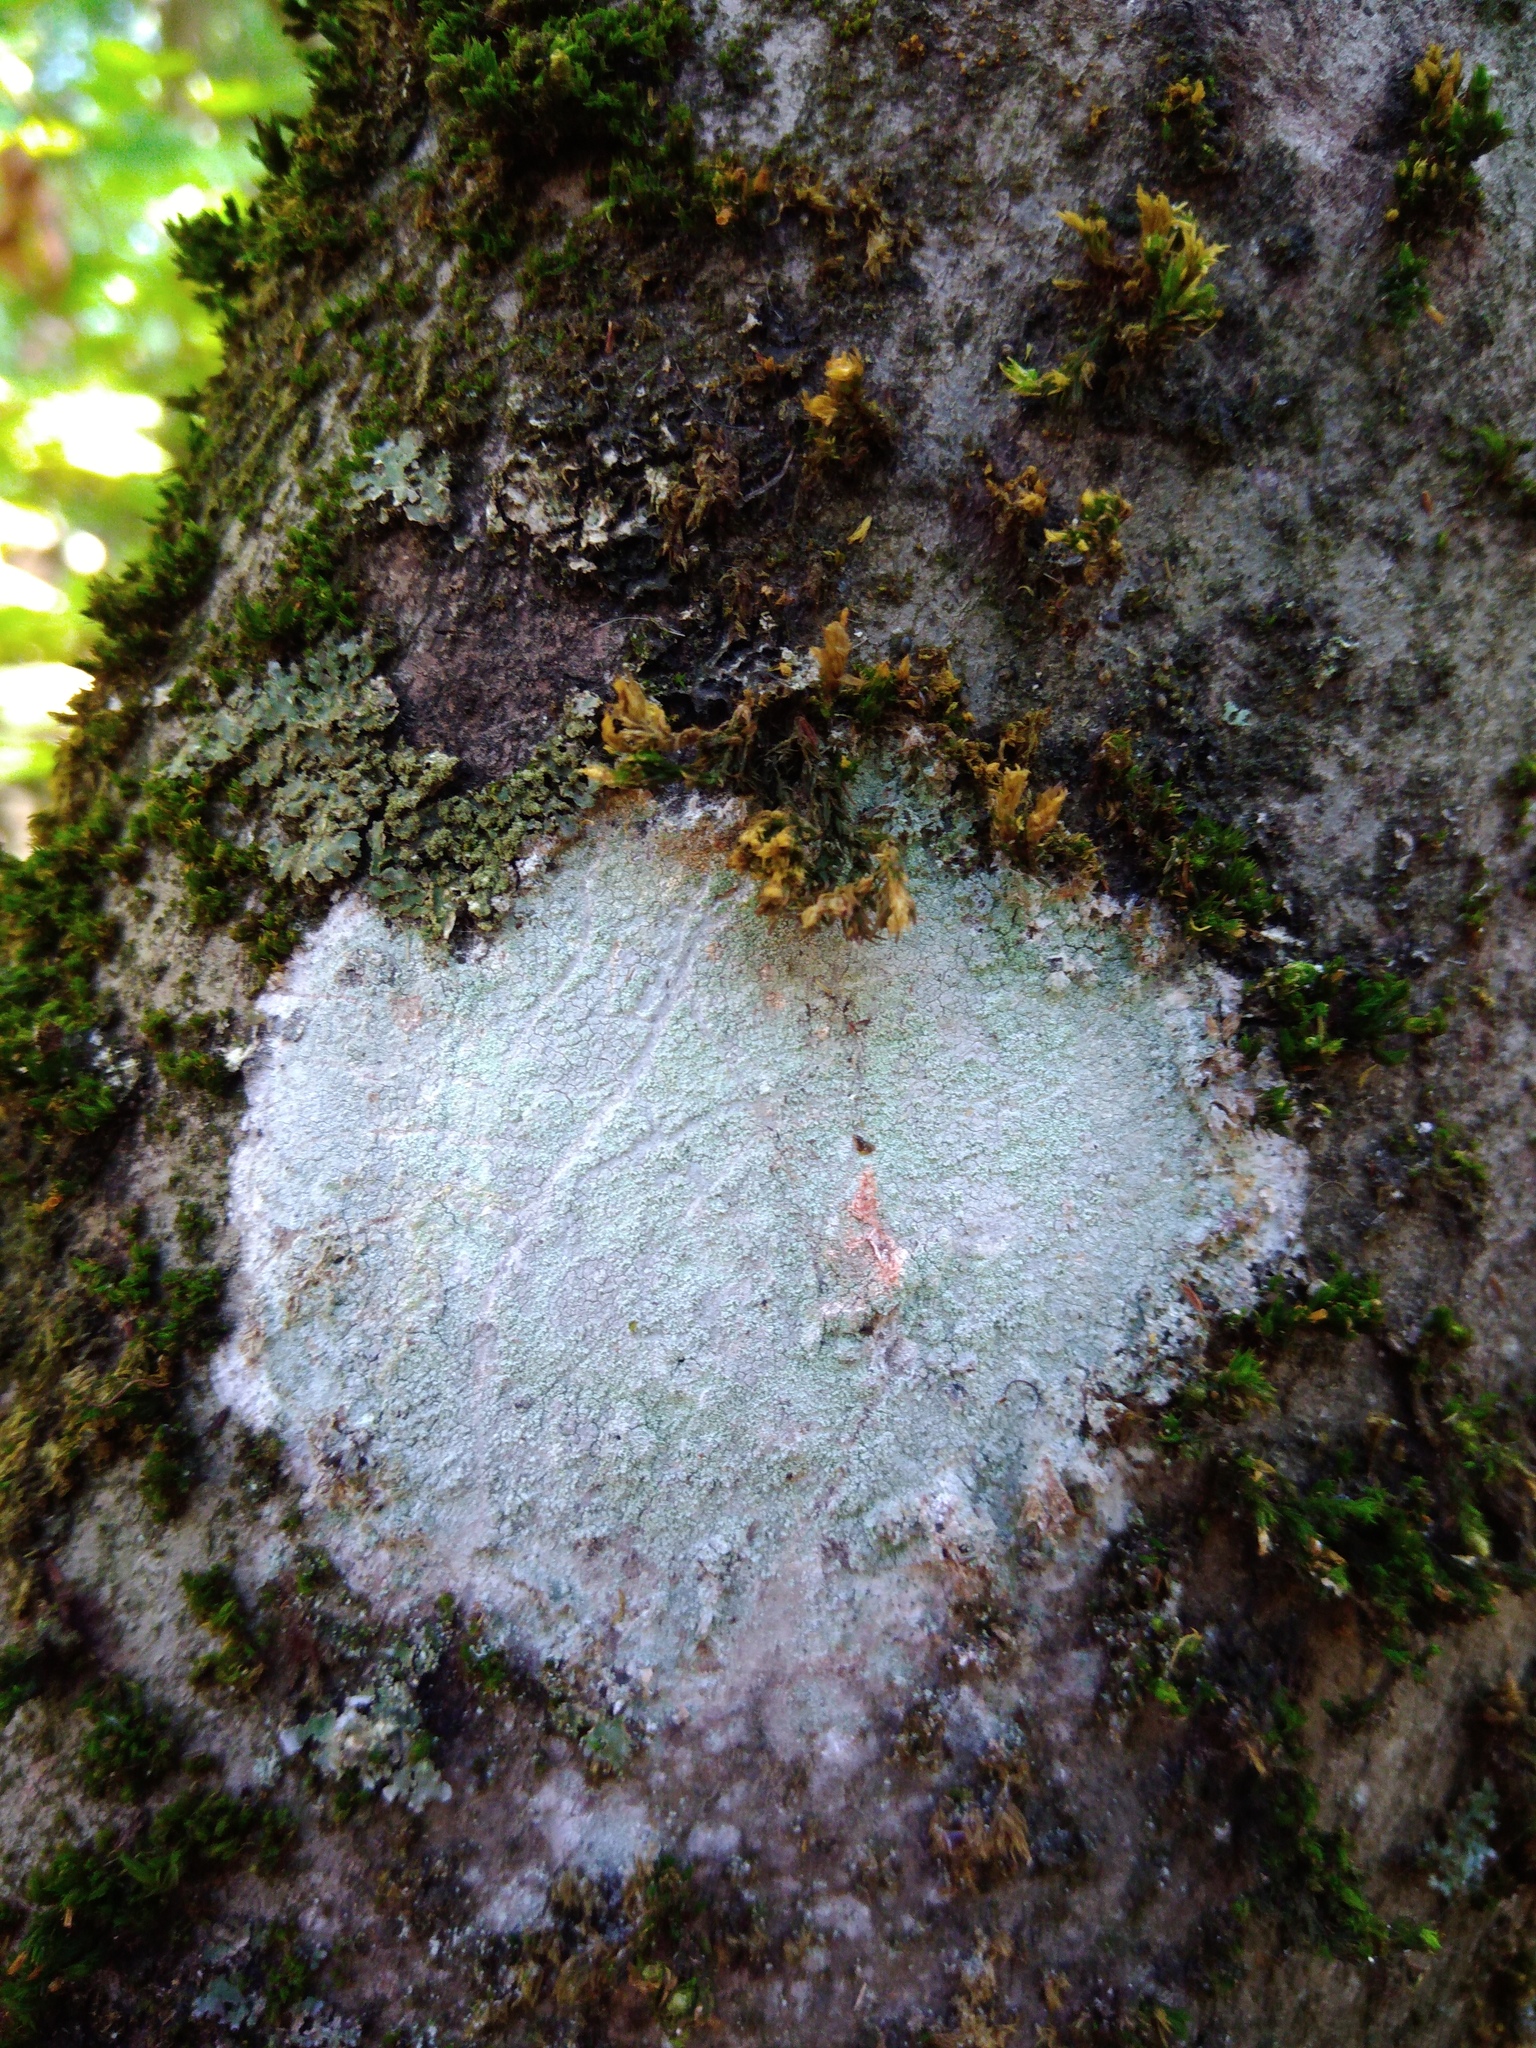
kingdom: Fungi
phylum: Ascomycota
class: Lecanoromycetes
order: Ostropales
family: Phlyctidaceae
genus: Phlyctis
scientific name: Phlyctis argena
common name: Whitewash lichen
